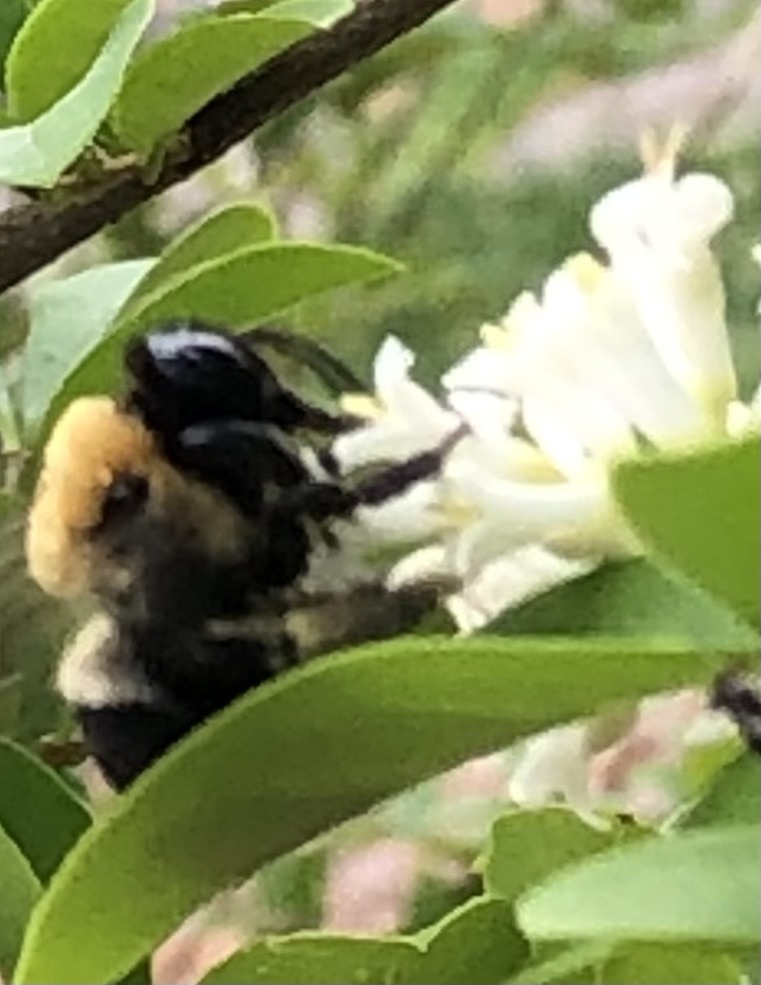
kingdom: Animalia
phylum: Arthropoda
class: Insecta
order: Hymenoptera
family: Apidae
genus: Xylocopa
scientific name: Xylocopa virginica
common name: Carpenter bee
